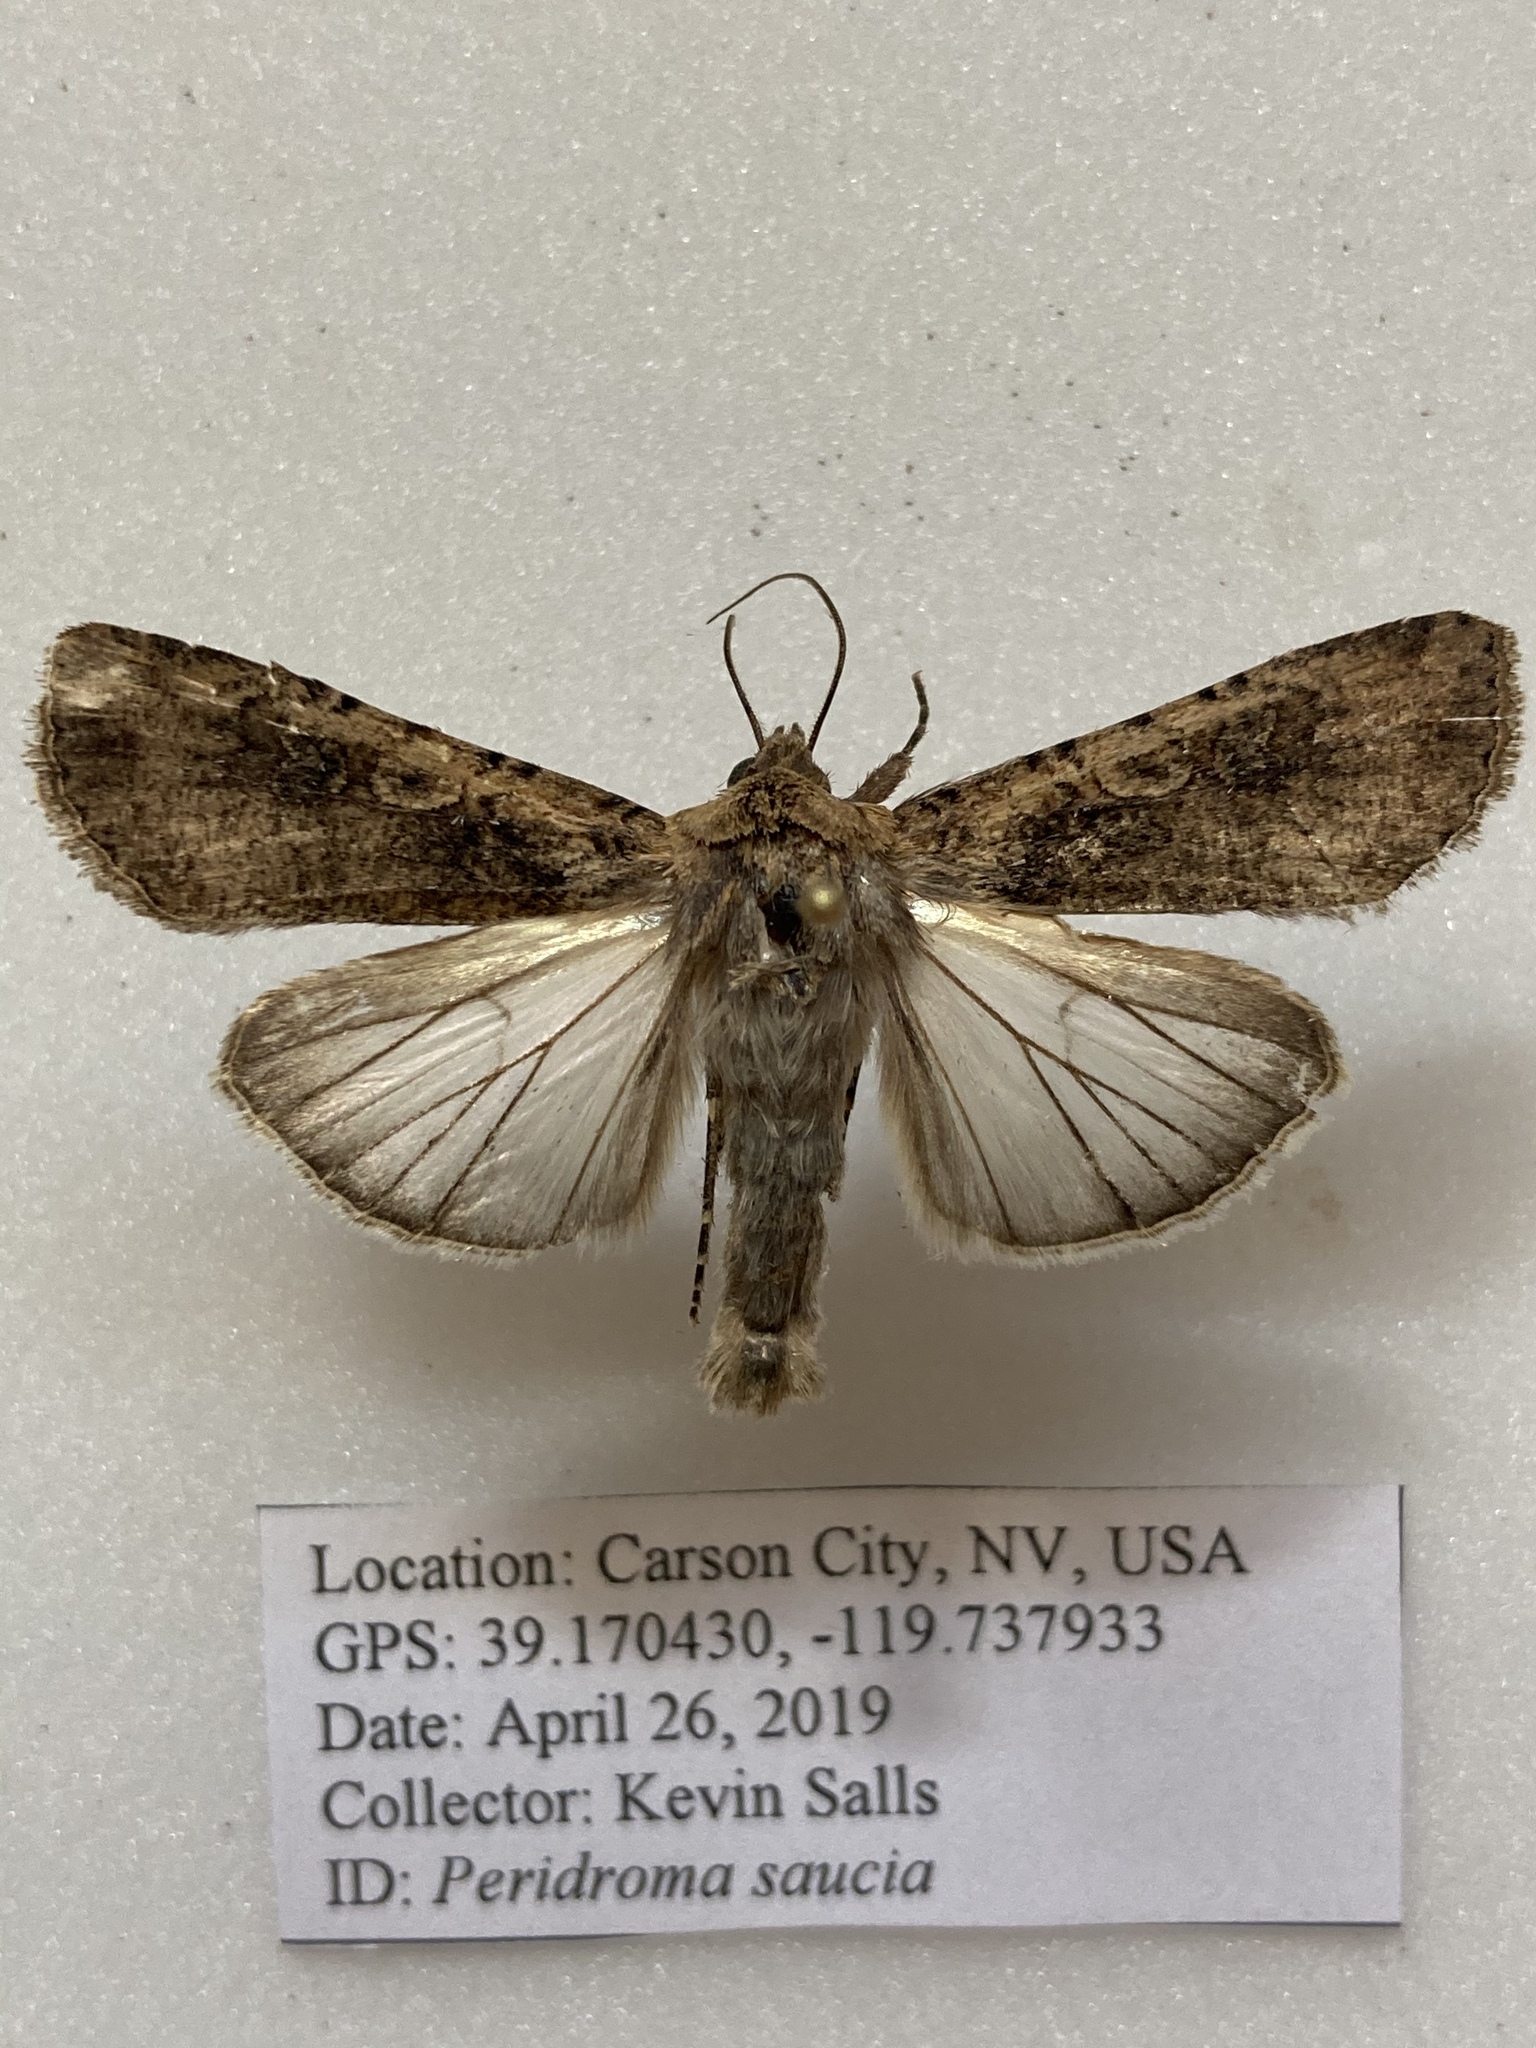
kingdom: Animalia
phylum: Arthropoda
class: Insecta
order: Lepidoptera
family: Noctuidae
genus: Peridroma
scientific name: Peridroma saucia
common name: Pearly underwing
